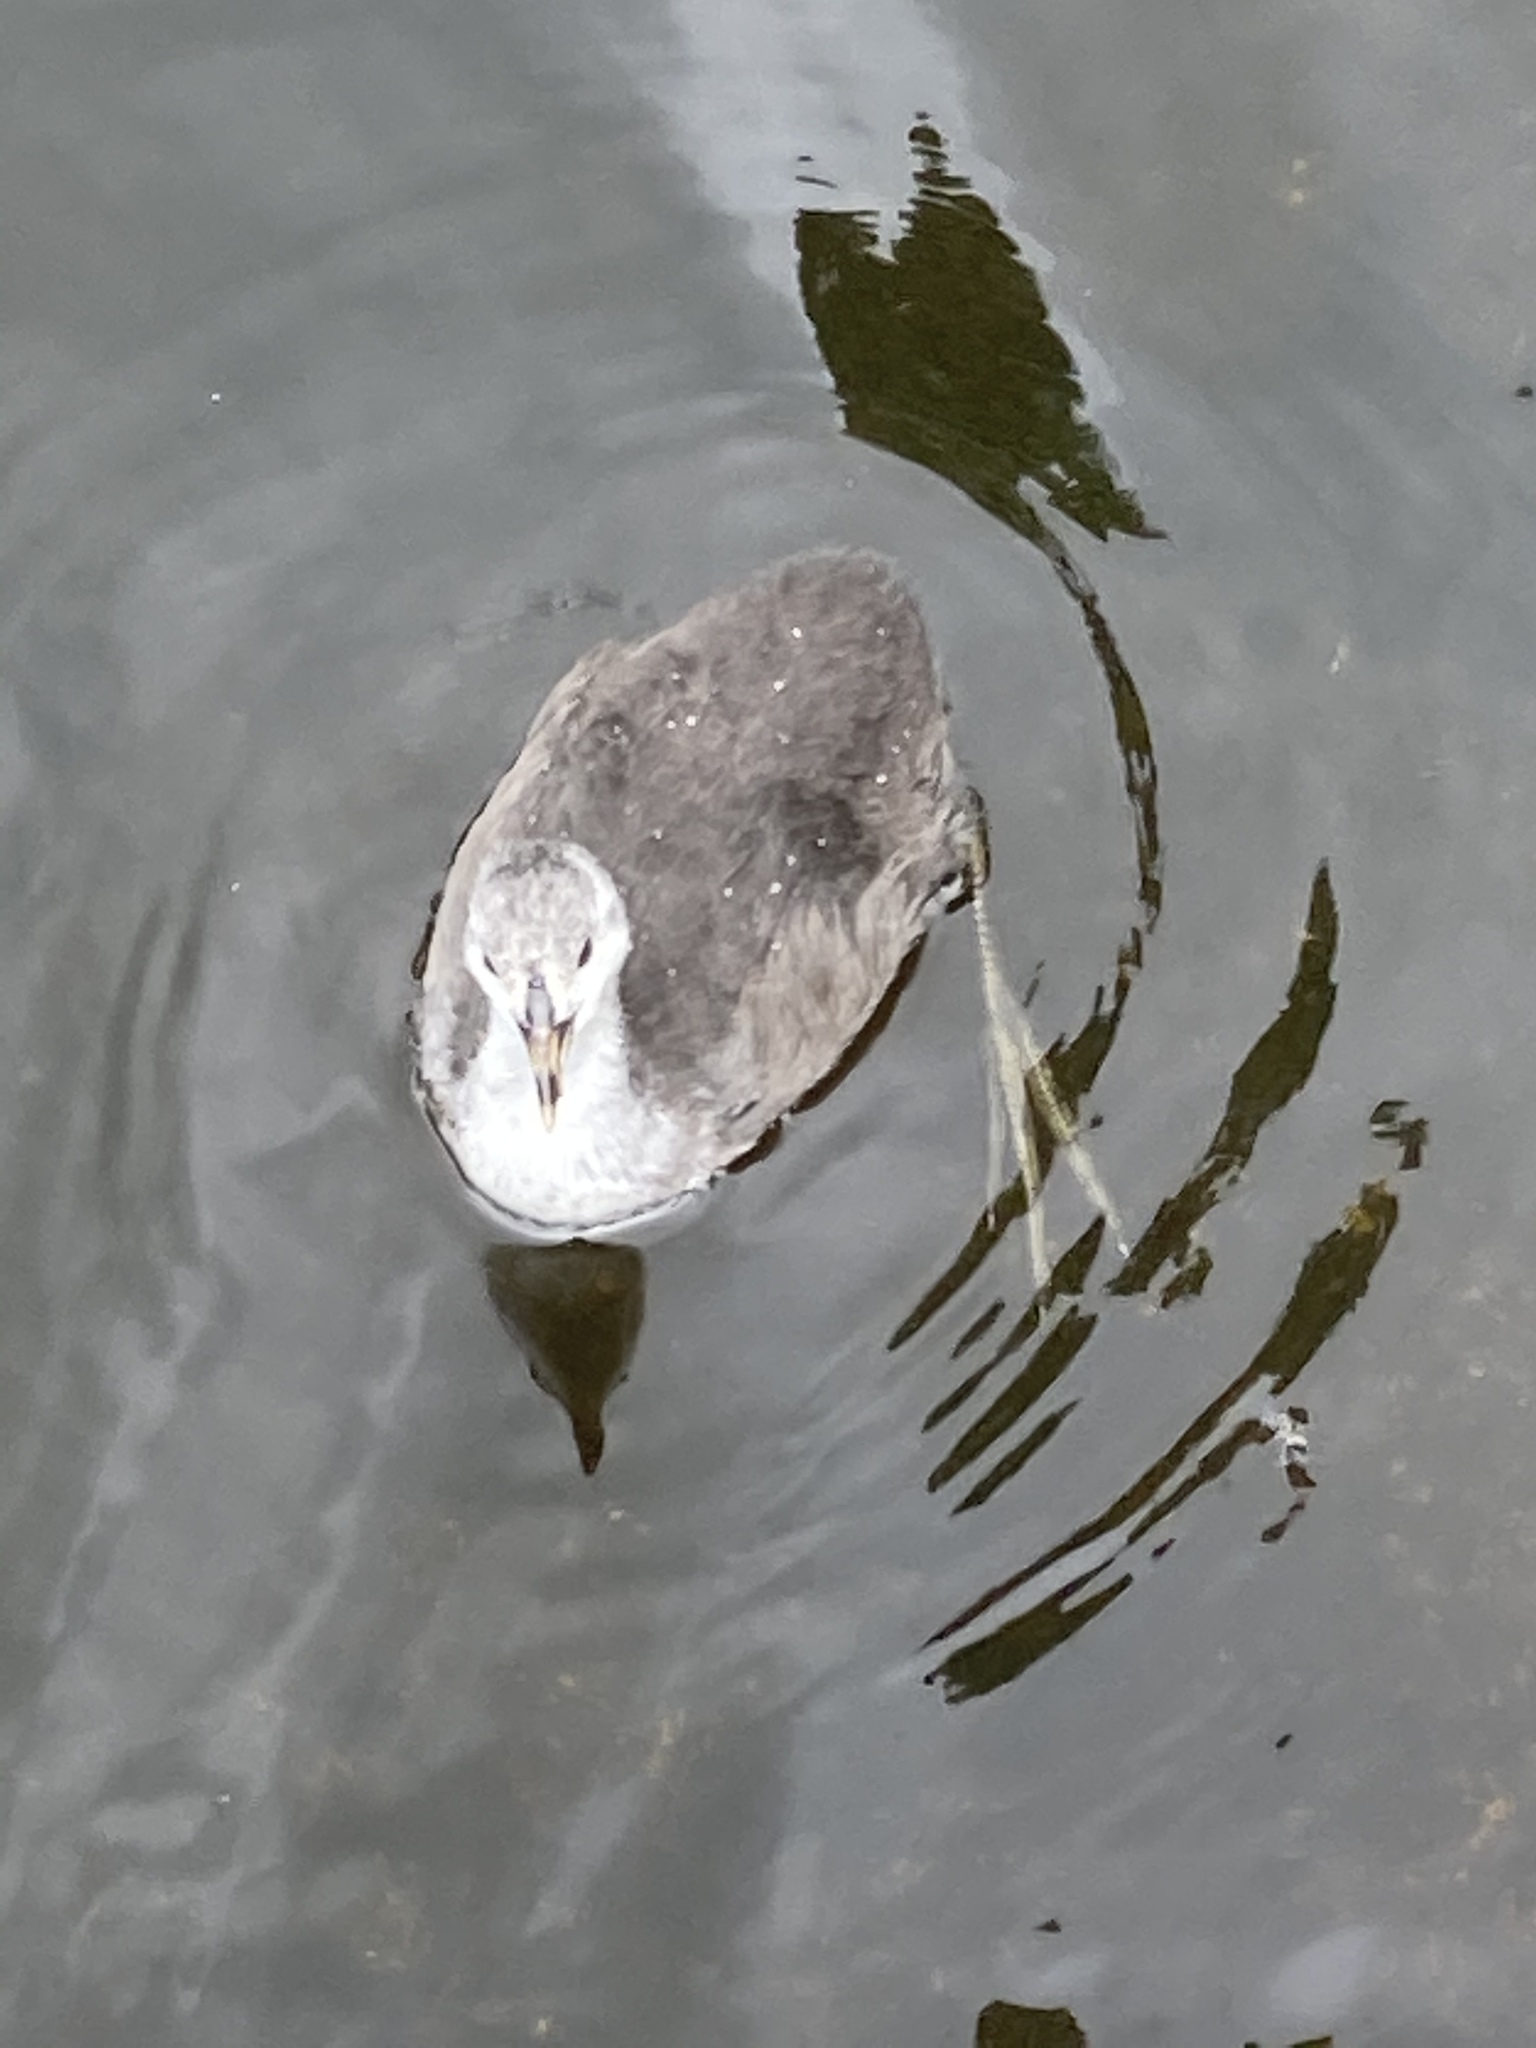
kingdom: Animalia
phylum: Chordata
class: Aves
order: Gruiformes
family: Rallidae
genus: Fulica
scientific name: Fulica atra
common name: Eurasian coot
